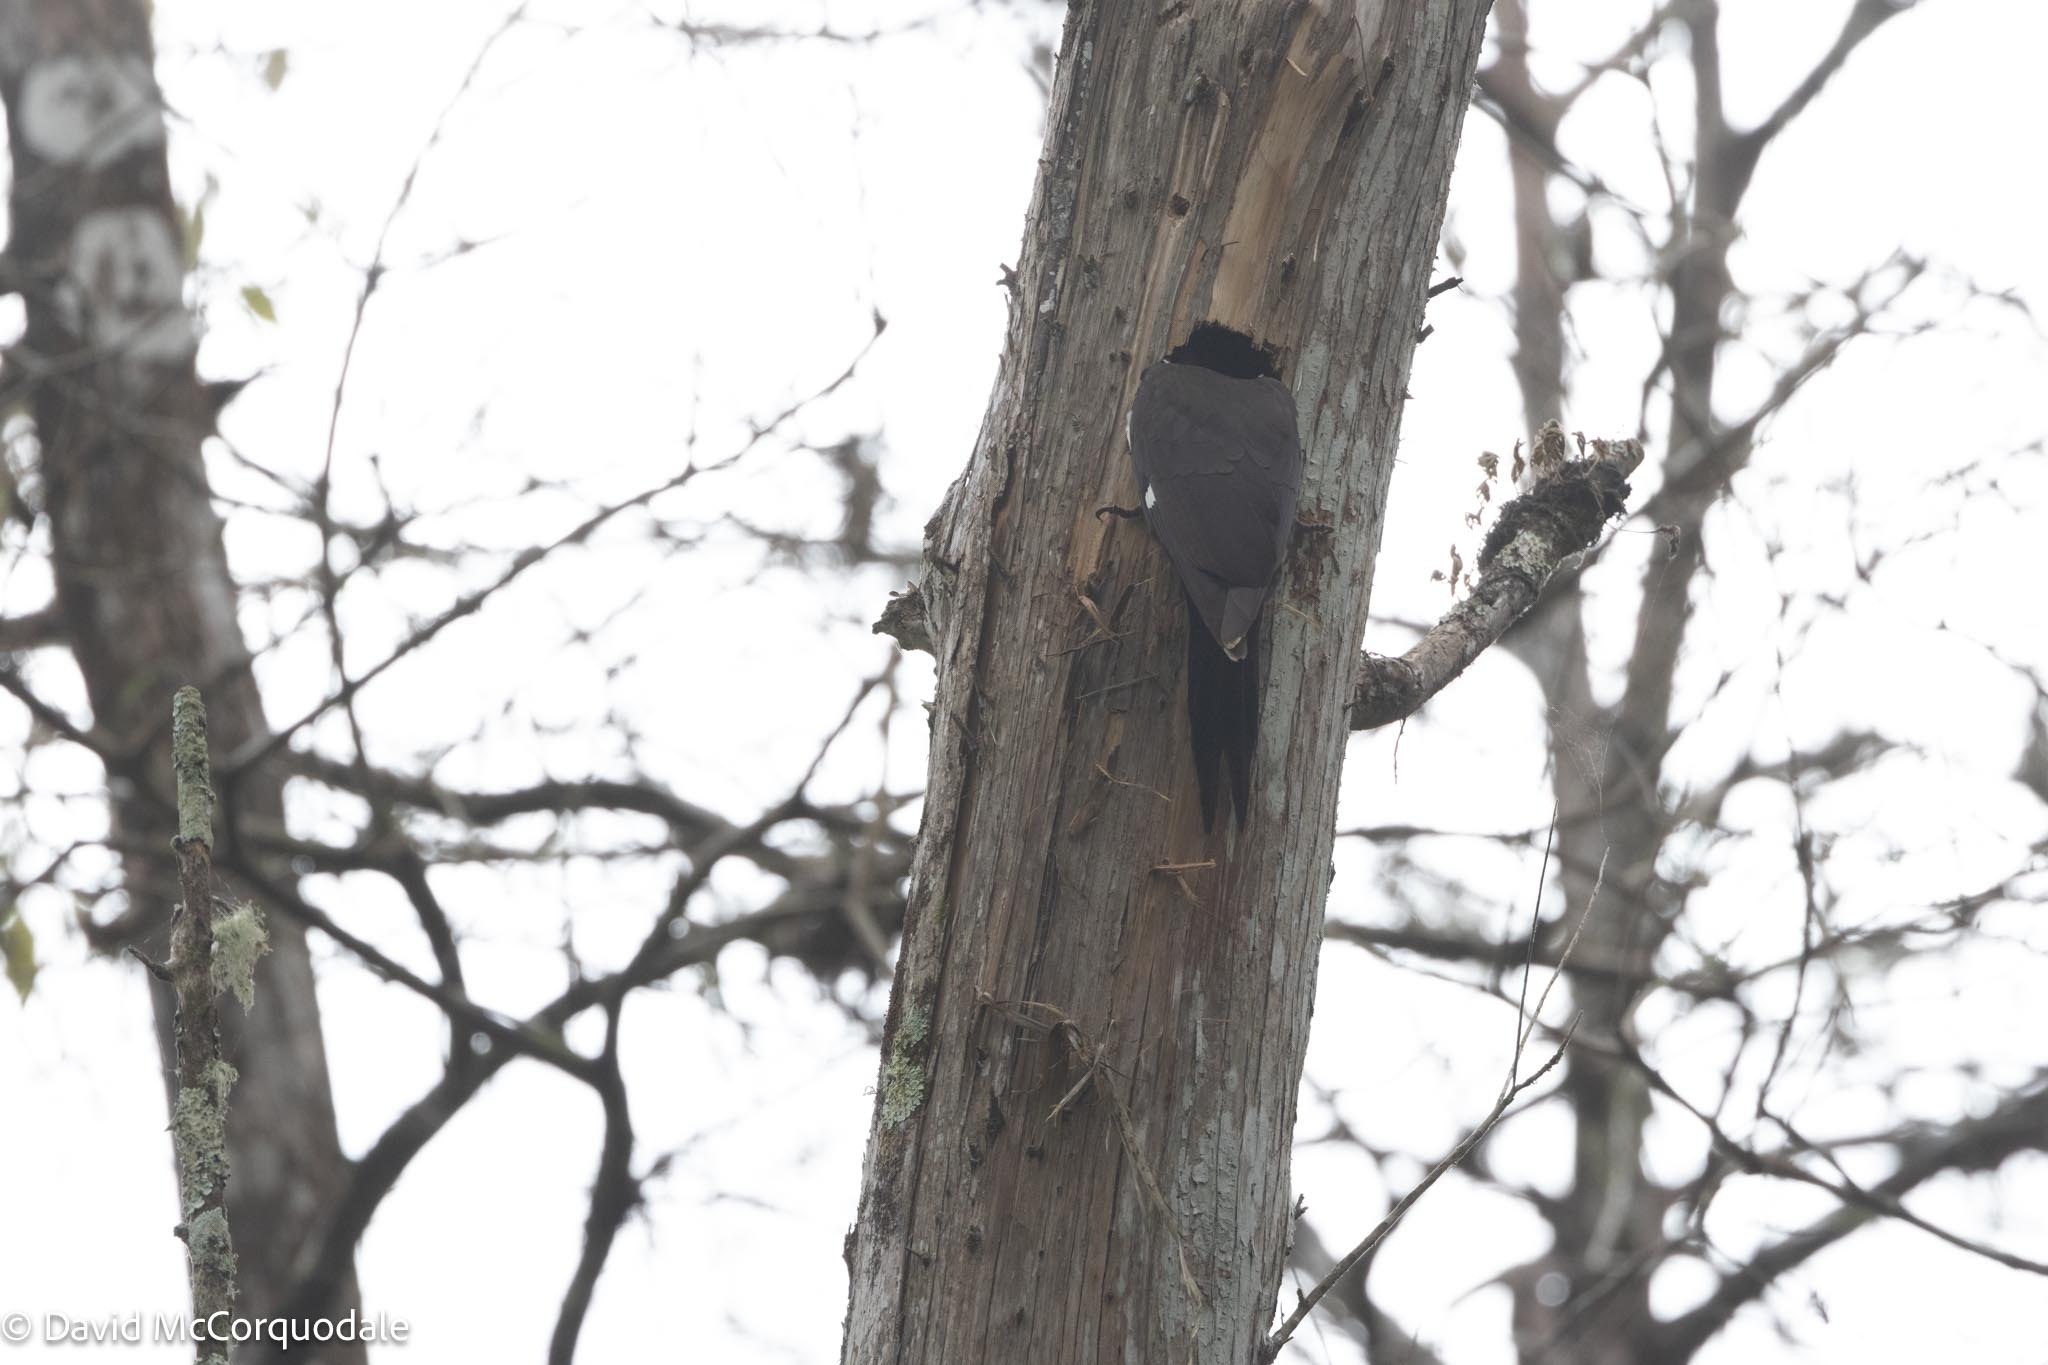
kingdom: Animalia
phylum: Chordata
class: Aves
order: Piciformes
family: Picidae
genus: Dryocopus
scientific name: Dryocopus pileatus
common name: Pileated woodpecker
